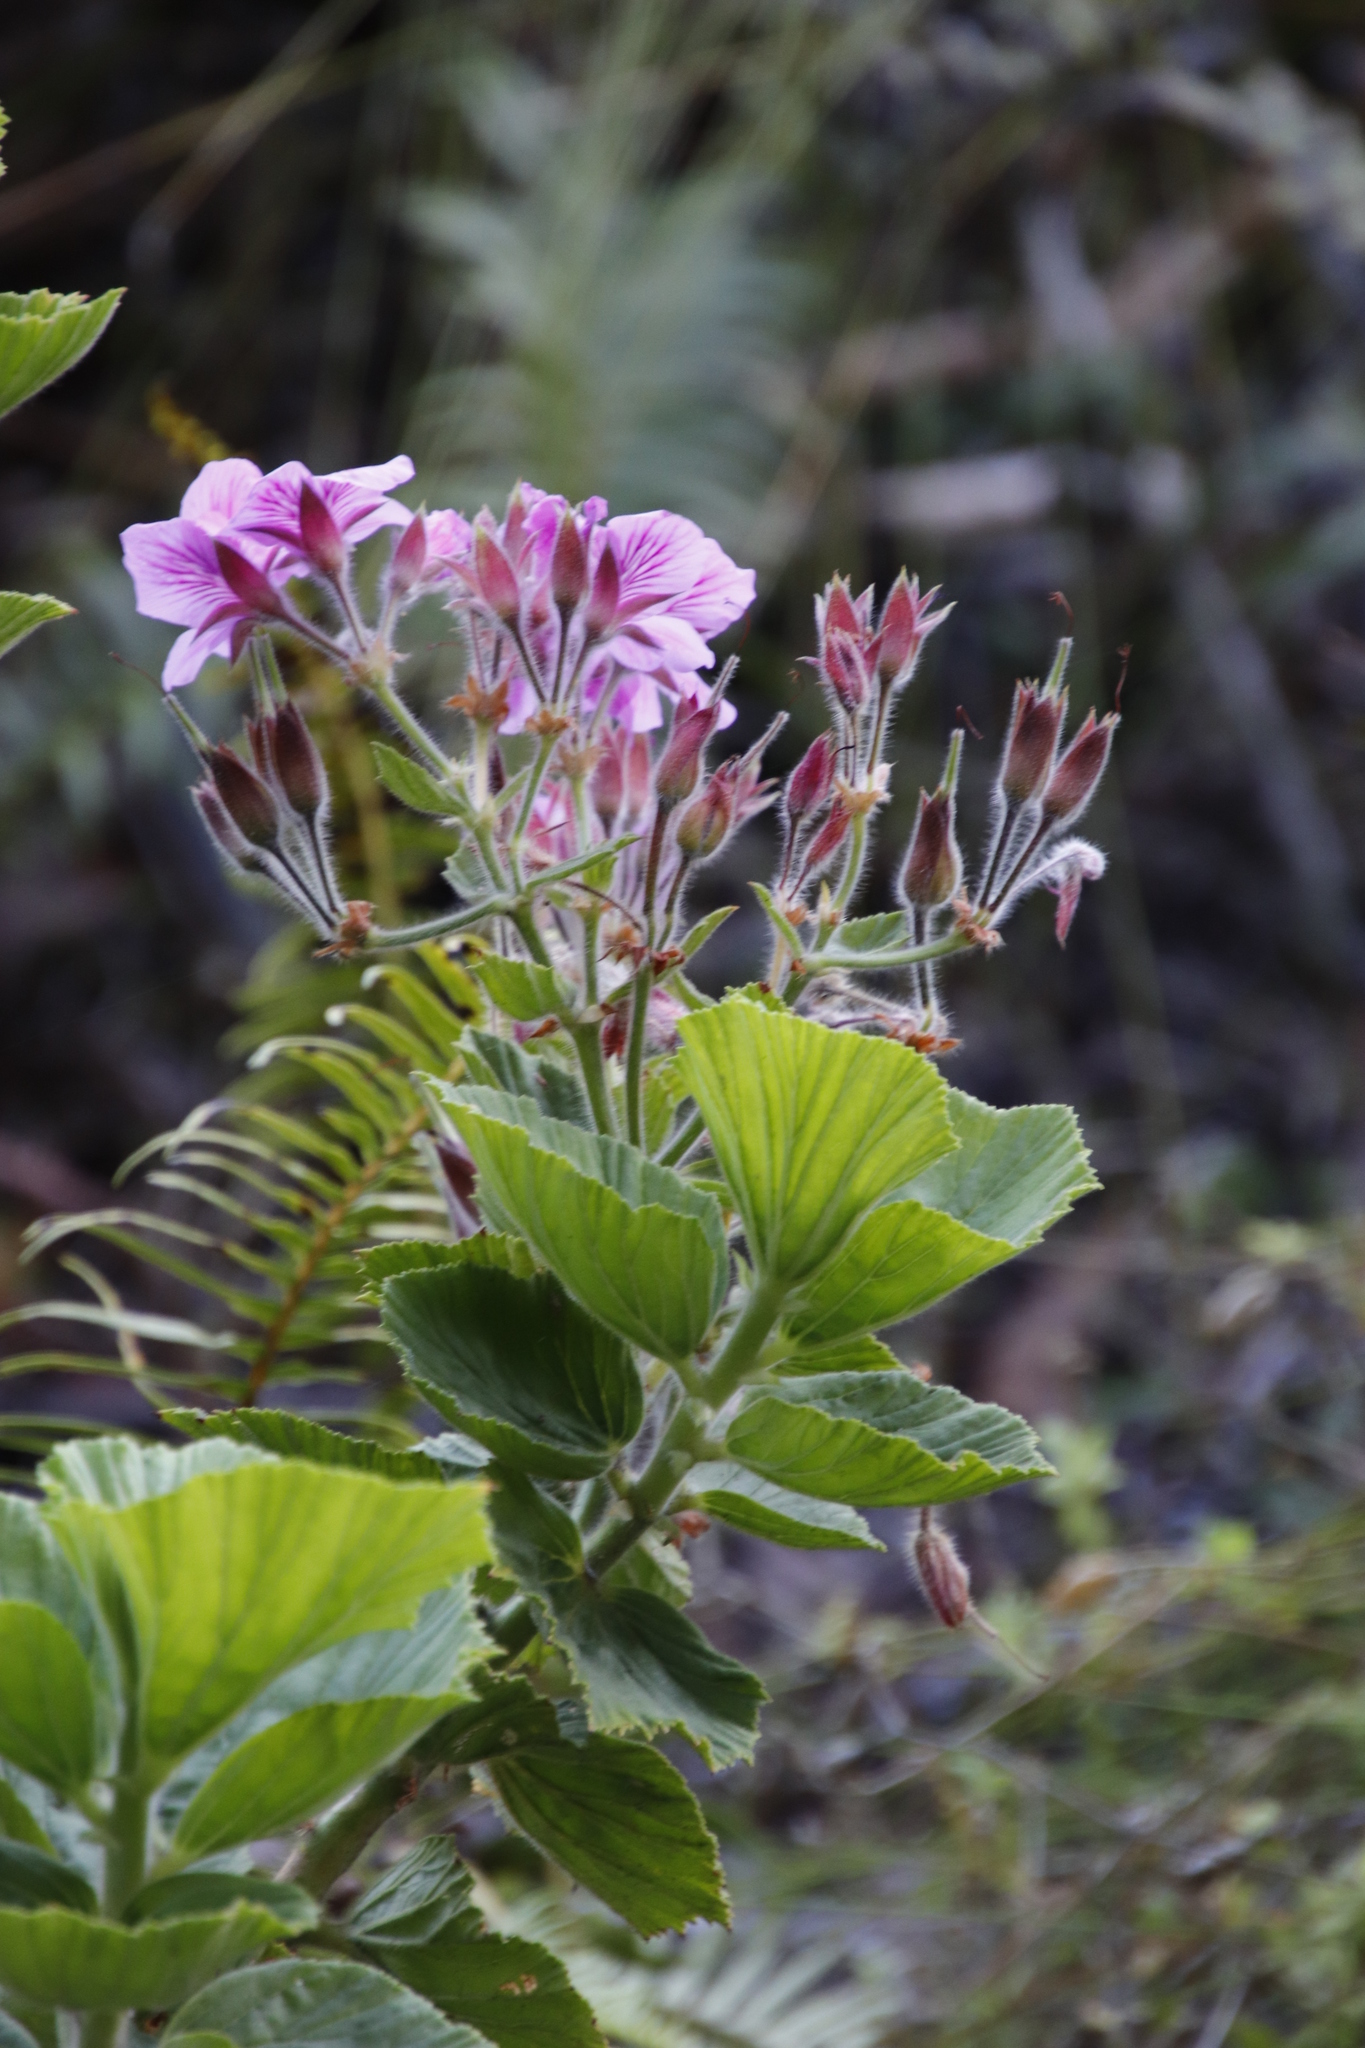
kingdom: Plantae
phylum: Tracheophyta
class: Magnoliopsida
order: Geraniales
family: Geraniaceae
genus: Pelargonium
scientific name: Pelargonium cucullatum
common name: Tree pelargonium
